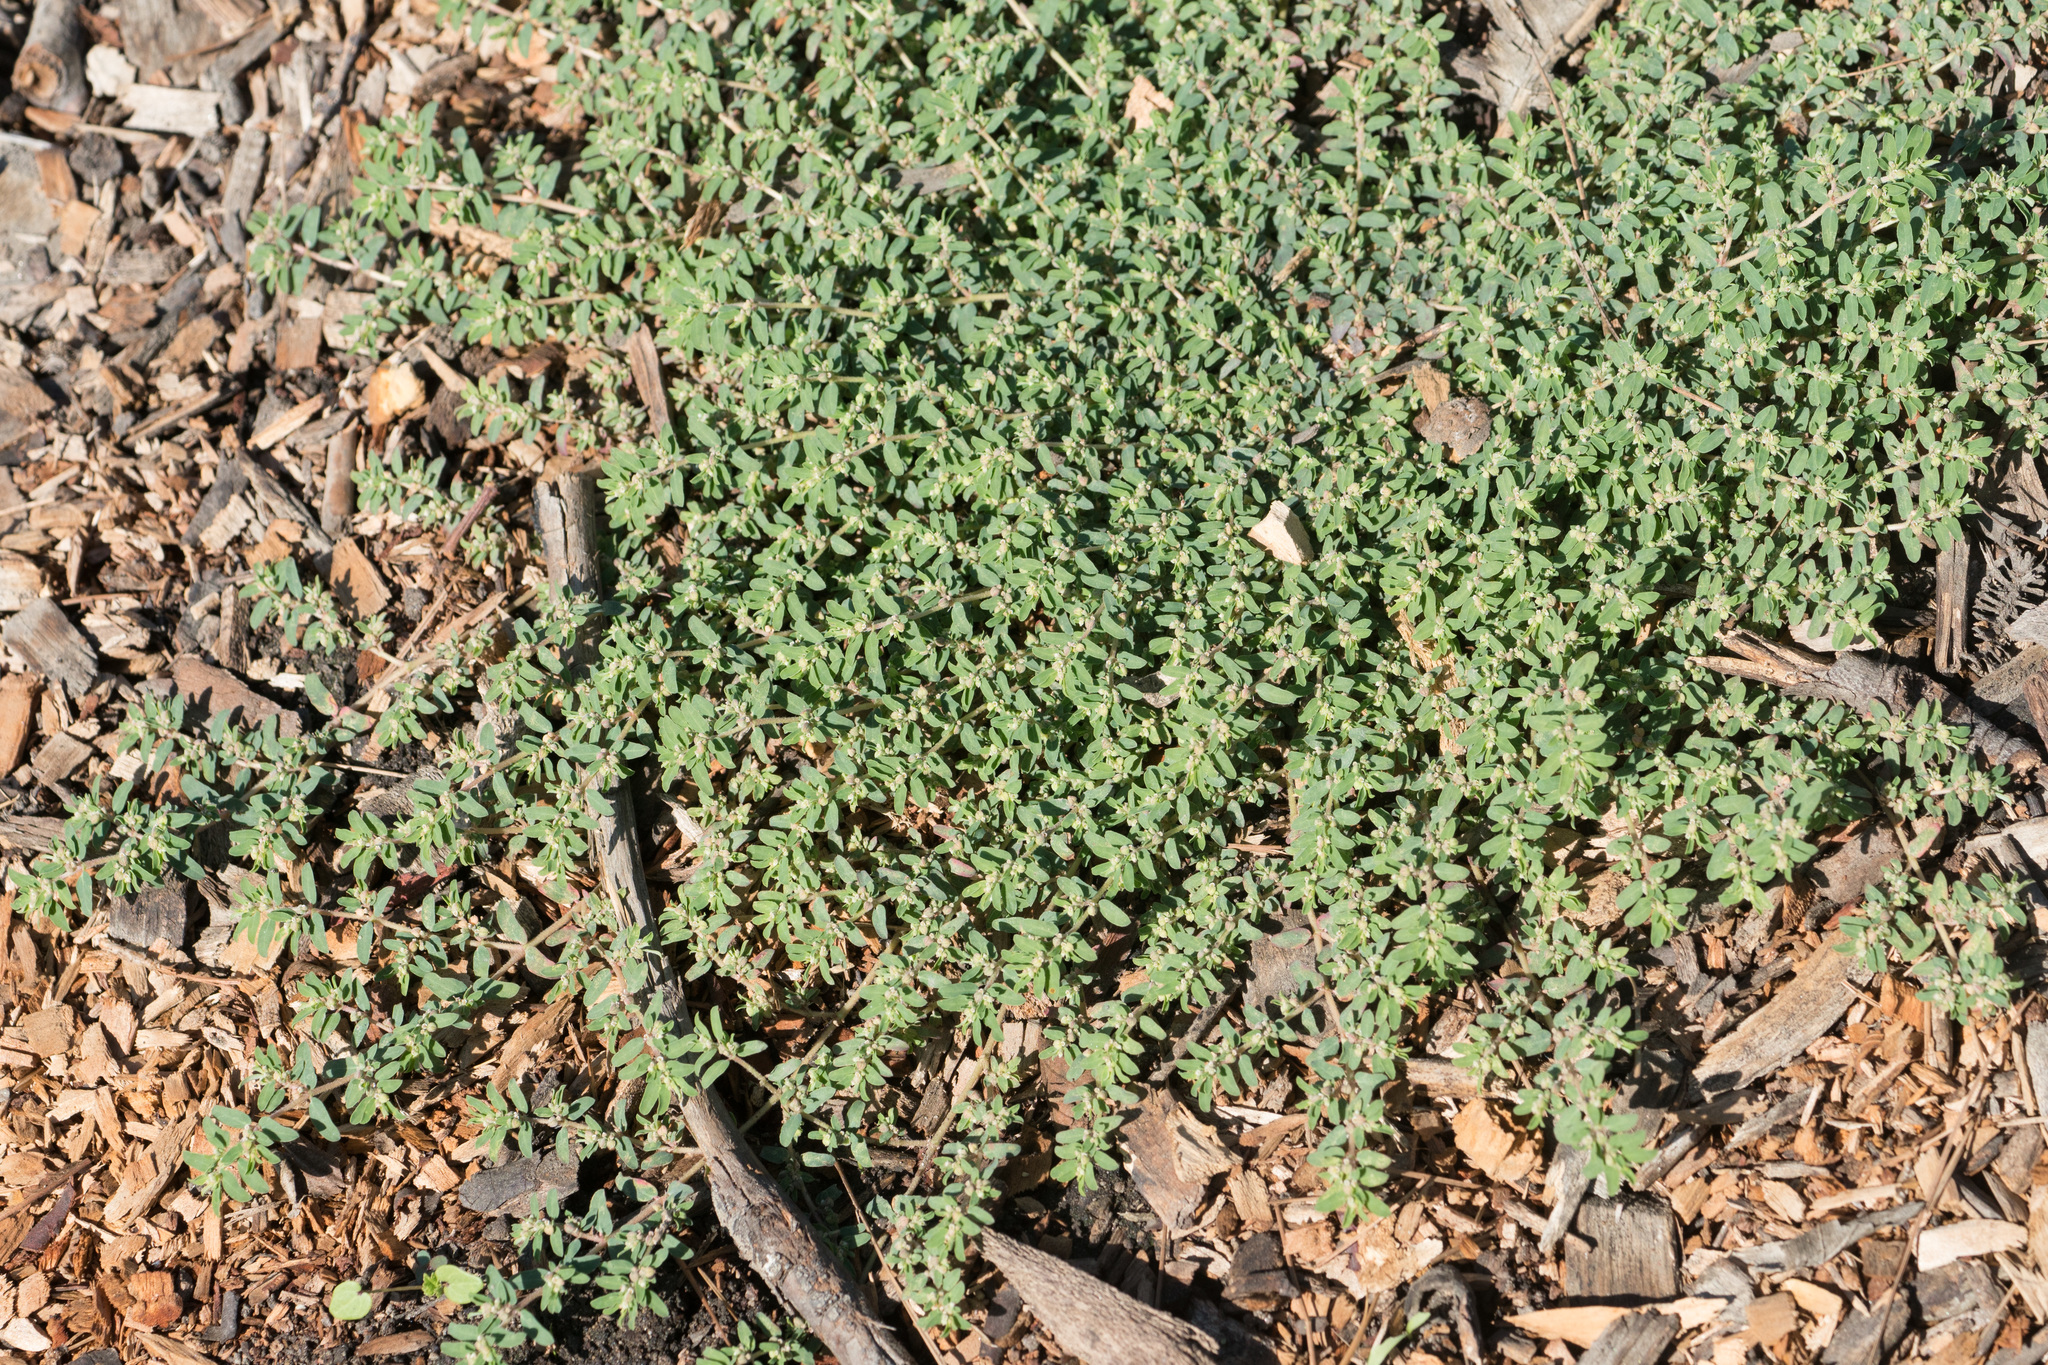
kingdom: Plantae
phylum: Tracheophyta
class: Magnoliopsida
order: Malpighiales
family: Euphorbiaceae
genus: Euphorbia
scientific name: Euphorbia maculata
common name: Spotted spurge
